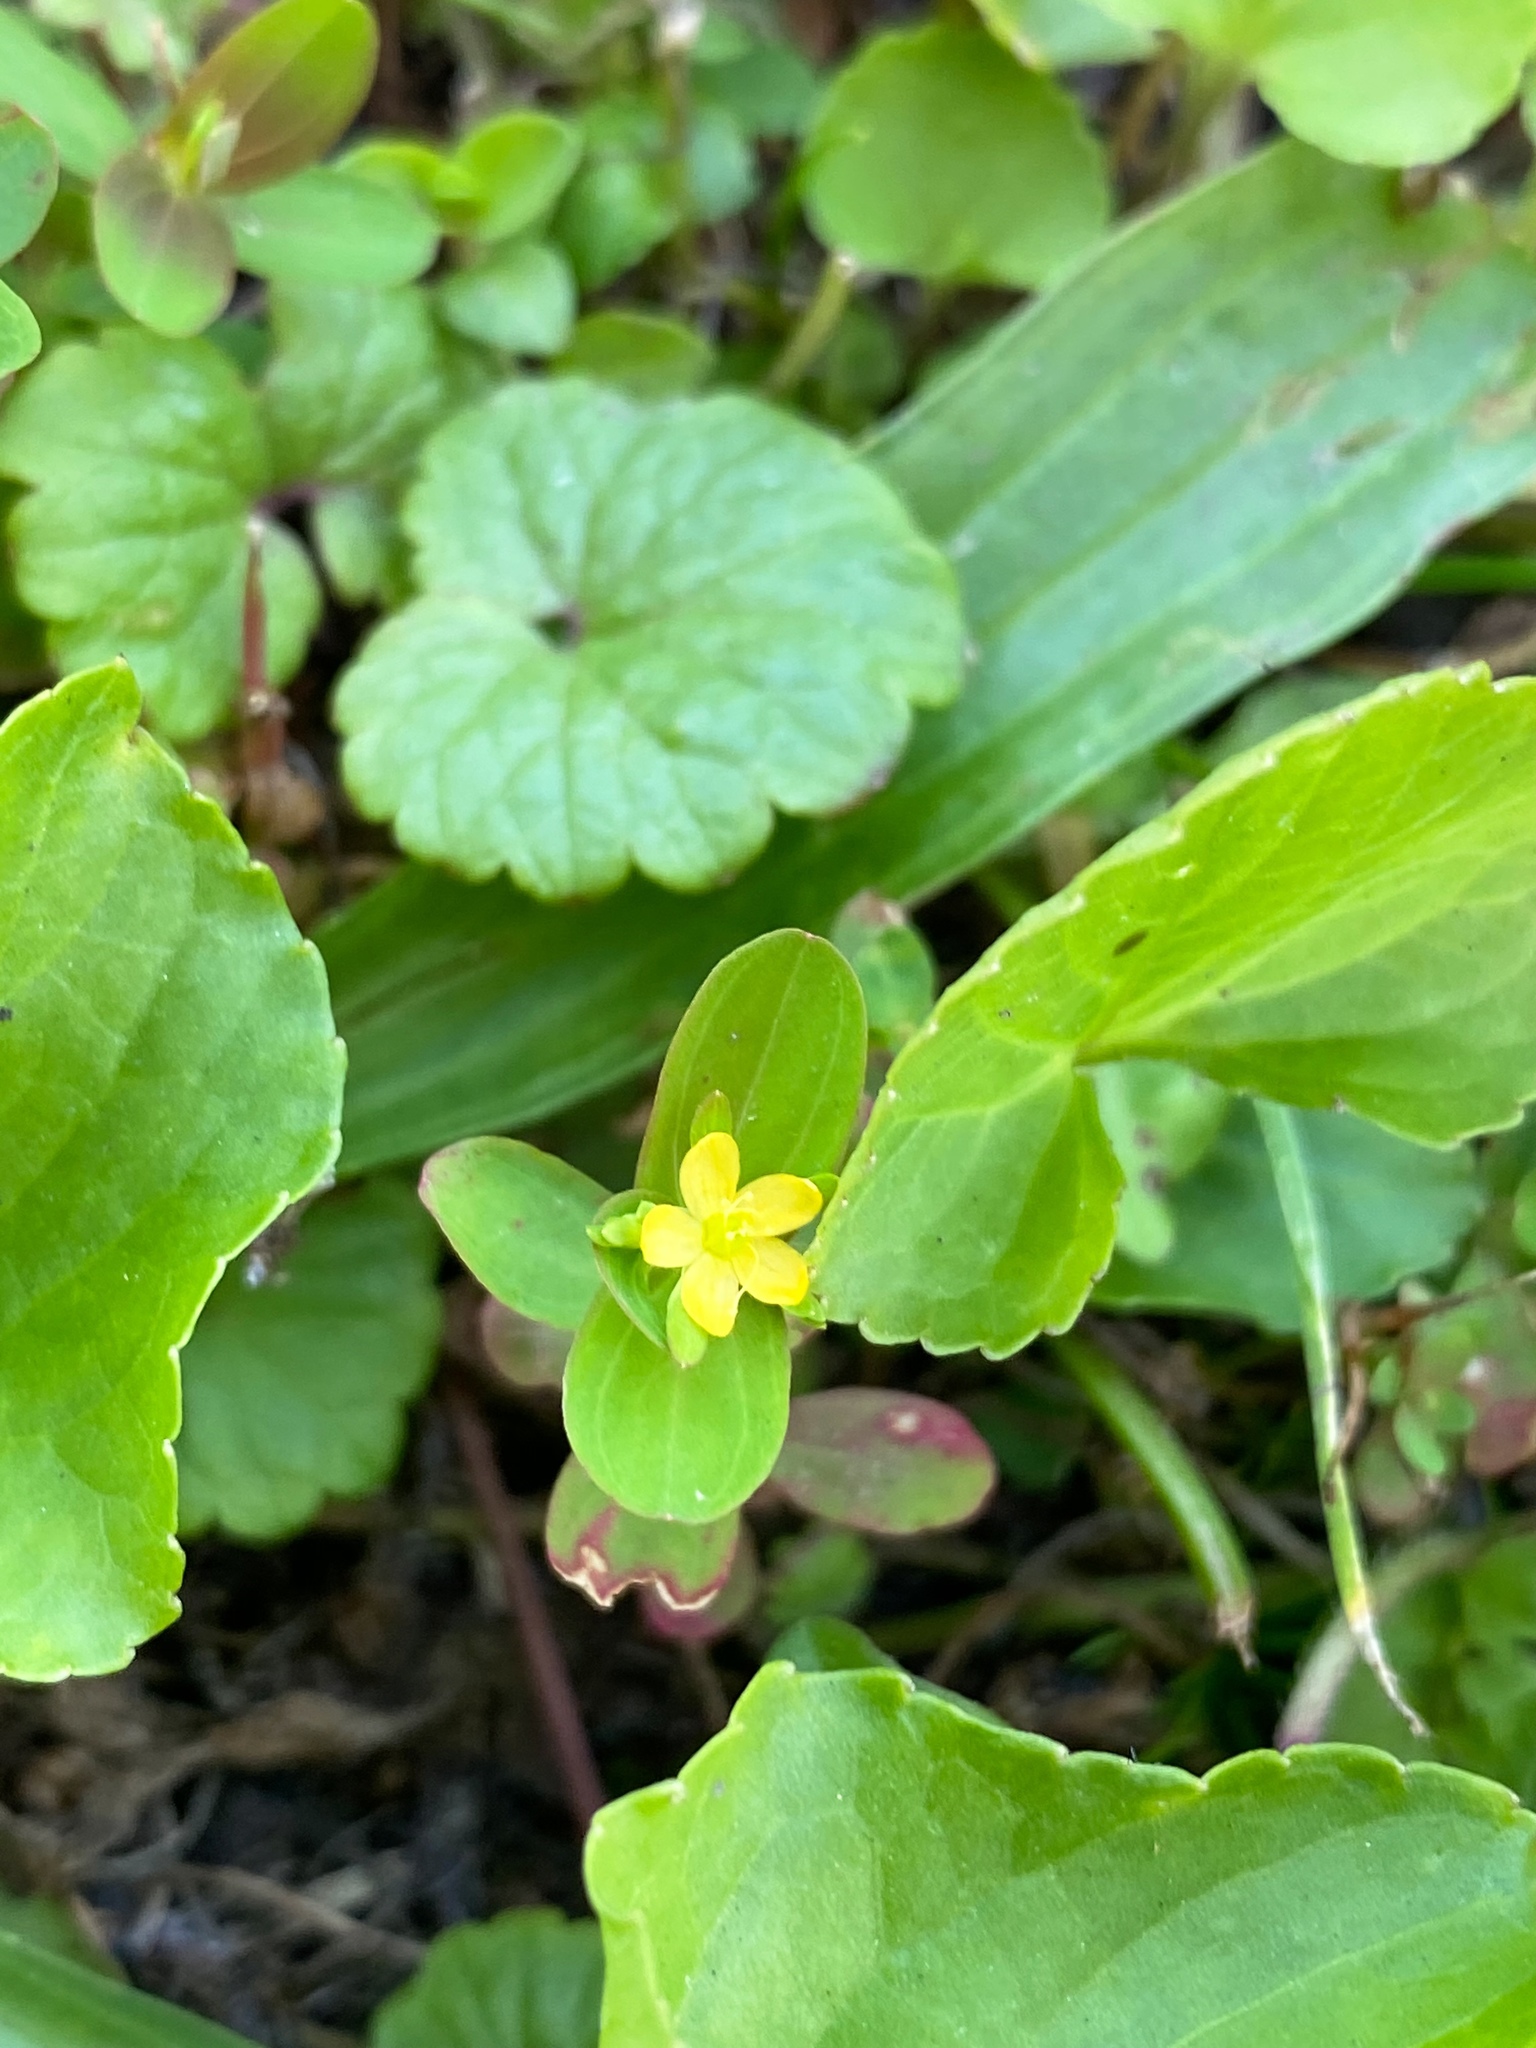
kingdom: Plantae
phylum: Tracheophyta
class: Magnoliopsida
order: Malpighiales
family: Hypericaceae
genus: Hypericum
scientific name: Hypericum mutilum
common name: Dwarf st. john's-wort
